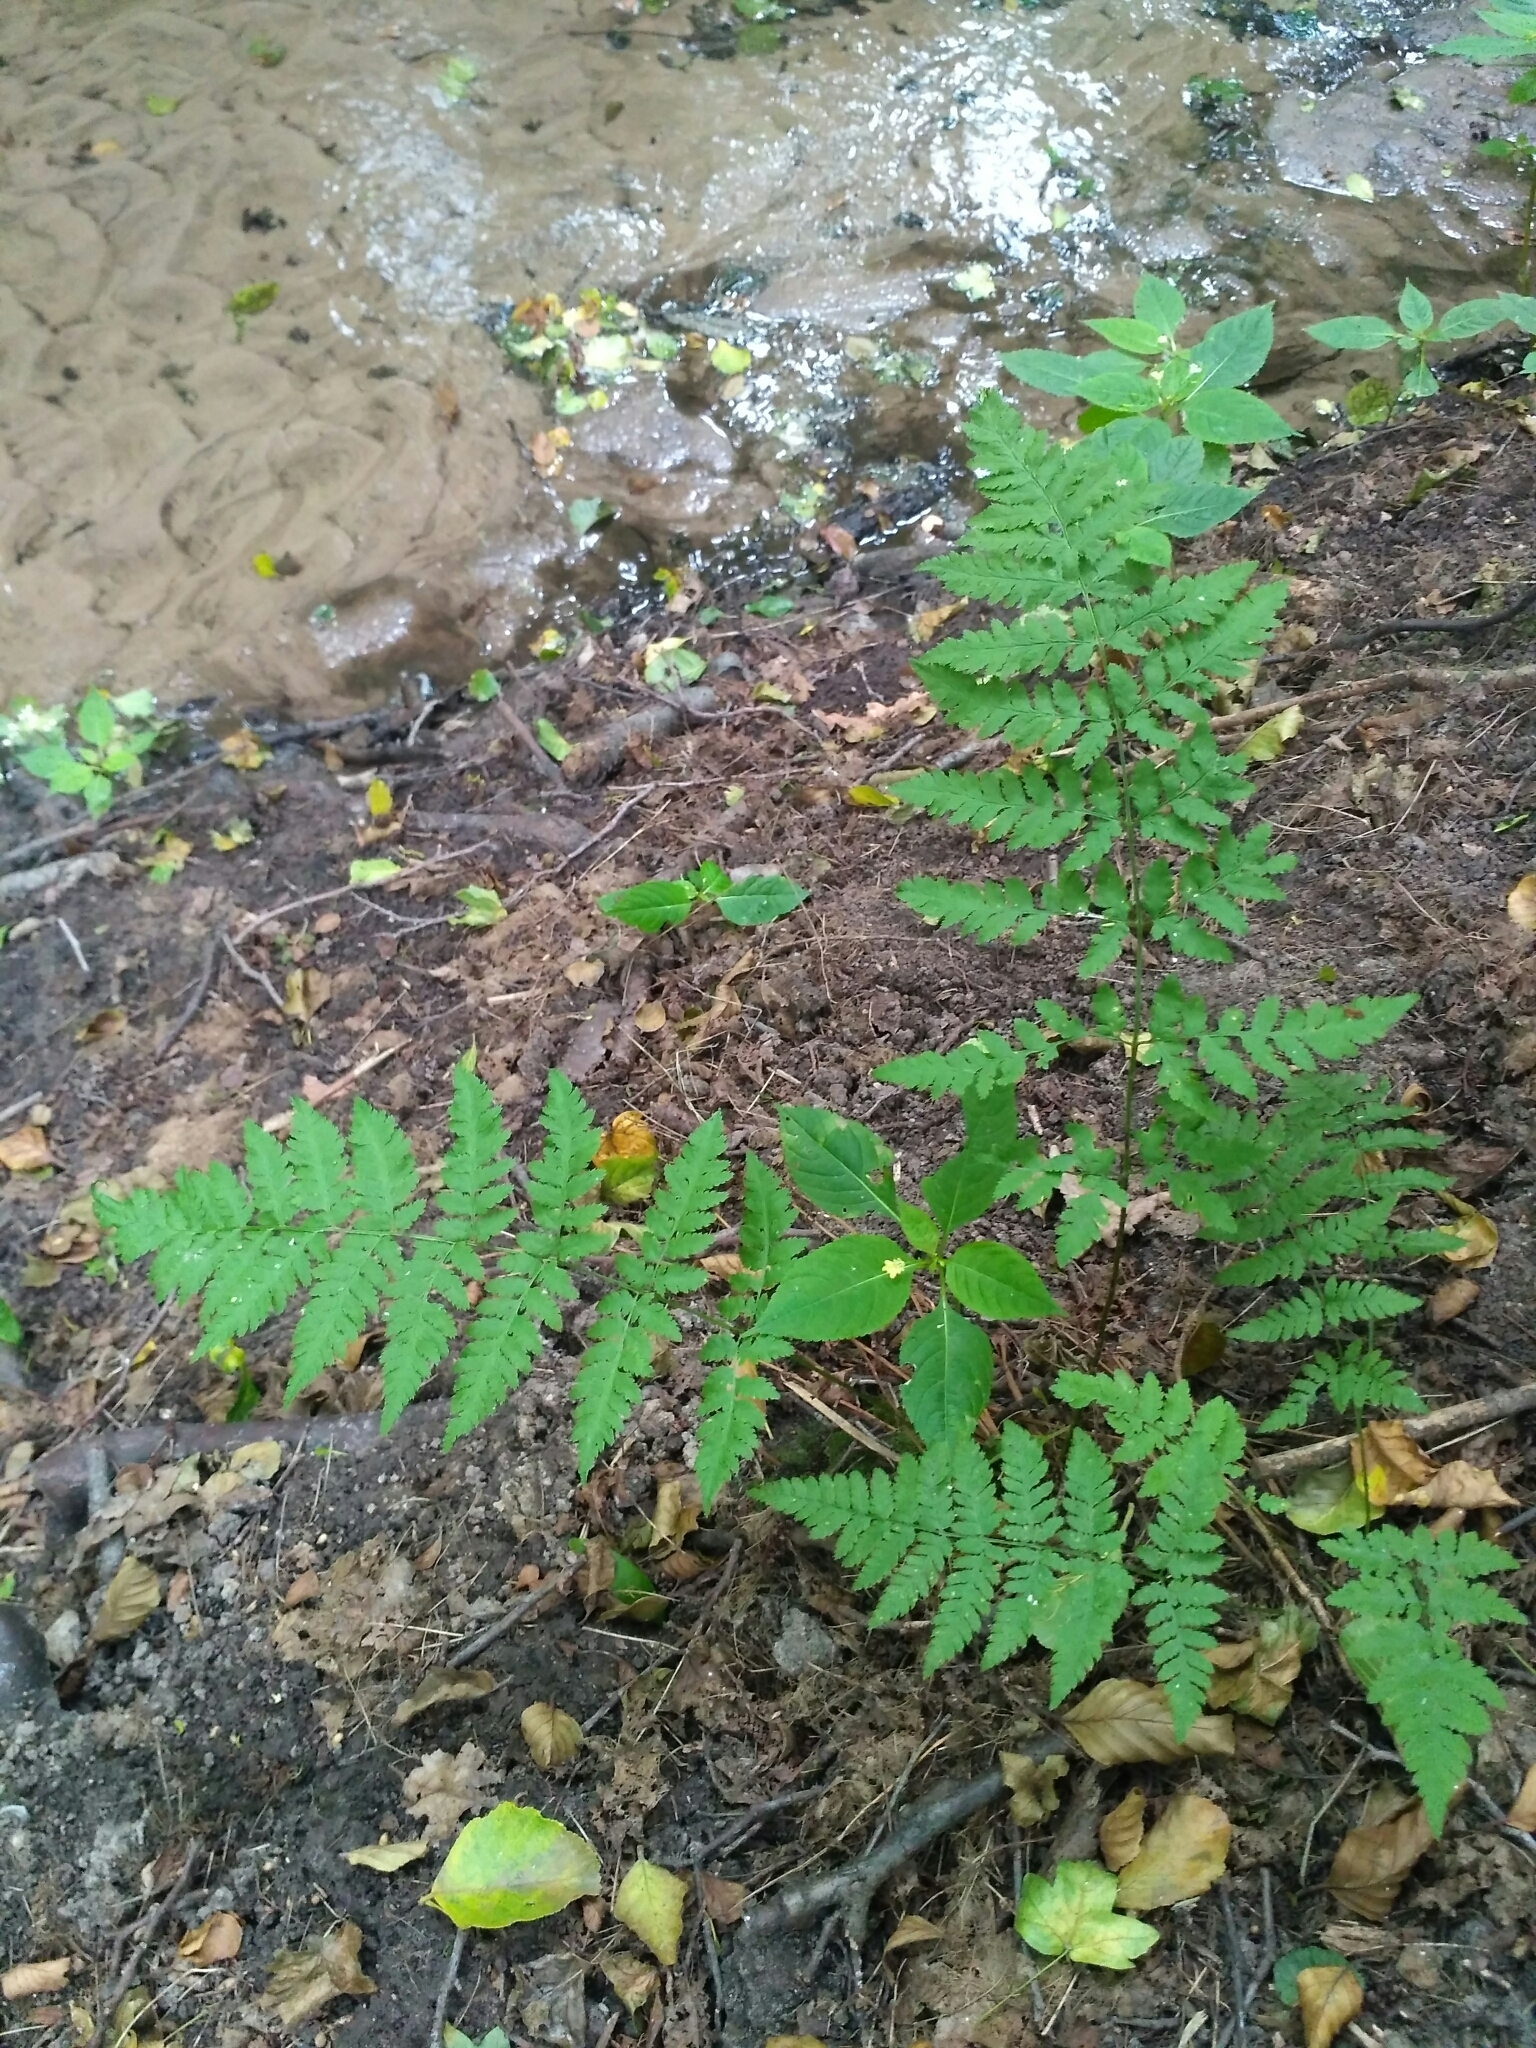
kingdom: Plantae
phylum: Tracheophyta
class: Polypodiopsida
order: Polypodiales
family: Dryopteridaceae
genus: Dryopteris
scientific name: Dryopteris carthusiana
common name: Narrow buckler-fern
